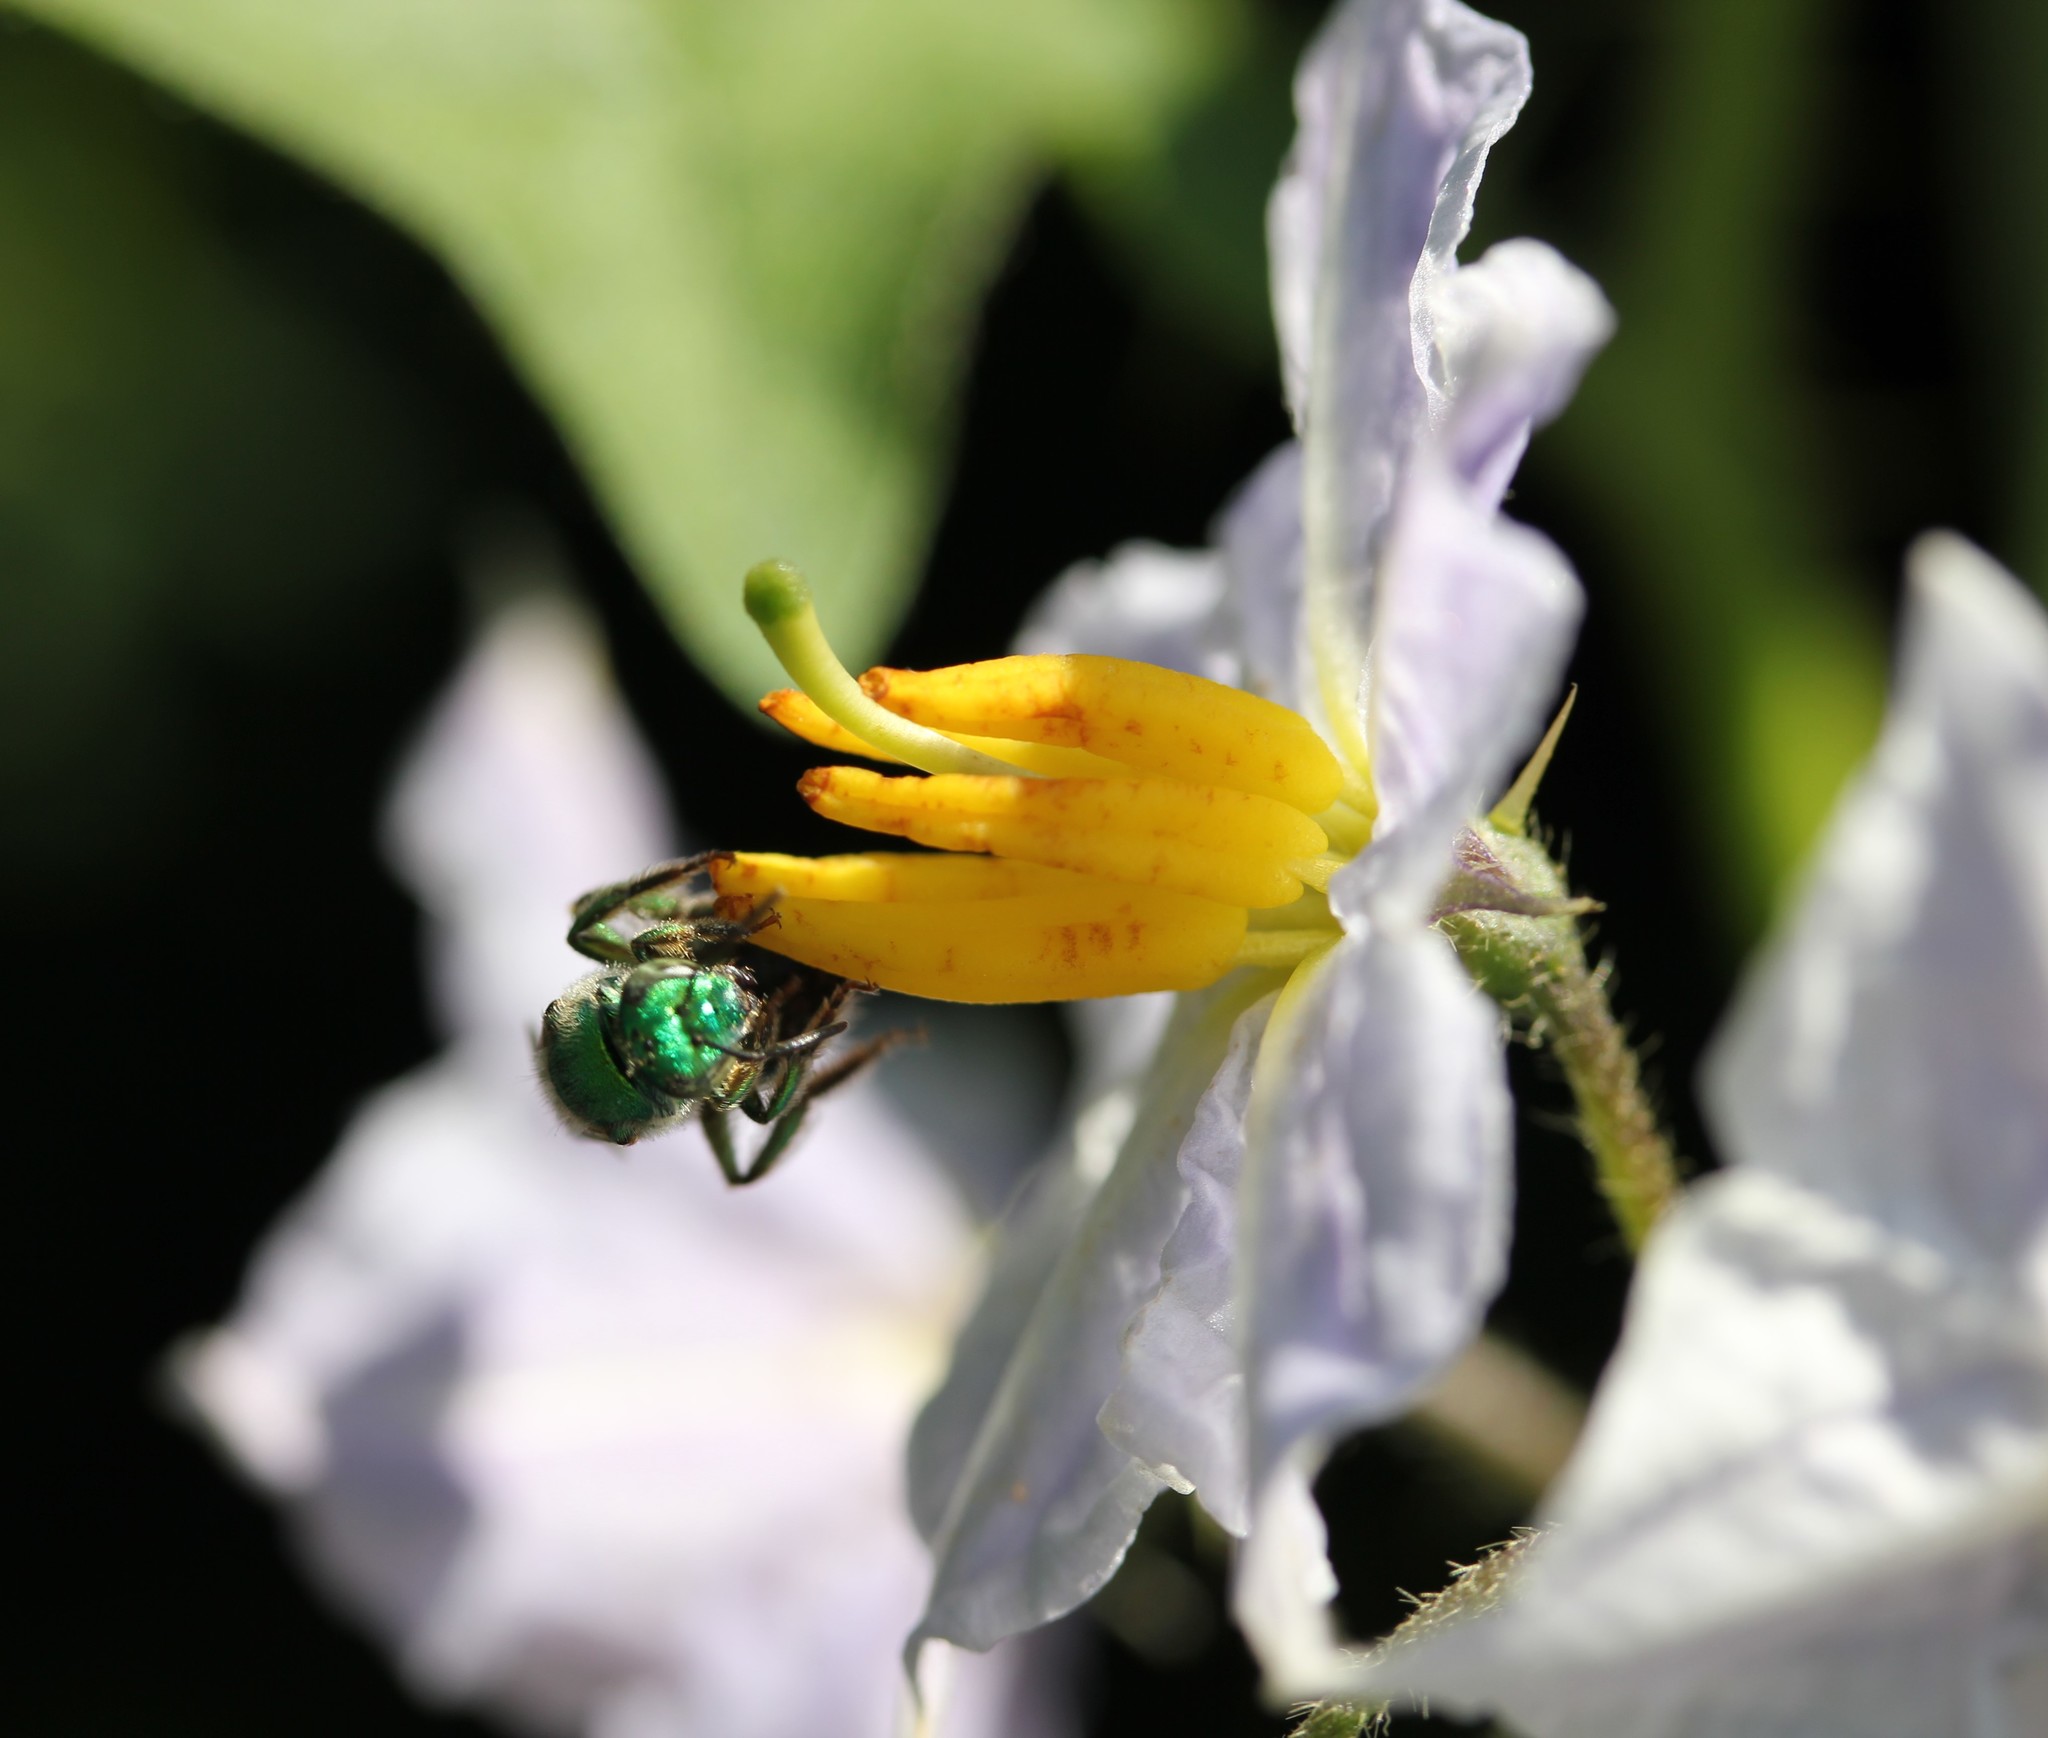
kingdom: Plantae
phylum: Tracheophyta
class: Magnoliopsida
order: Solanales
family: Solanaceae
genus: Solanum
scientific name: Solanum carolinense
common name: Horse-nettle
